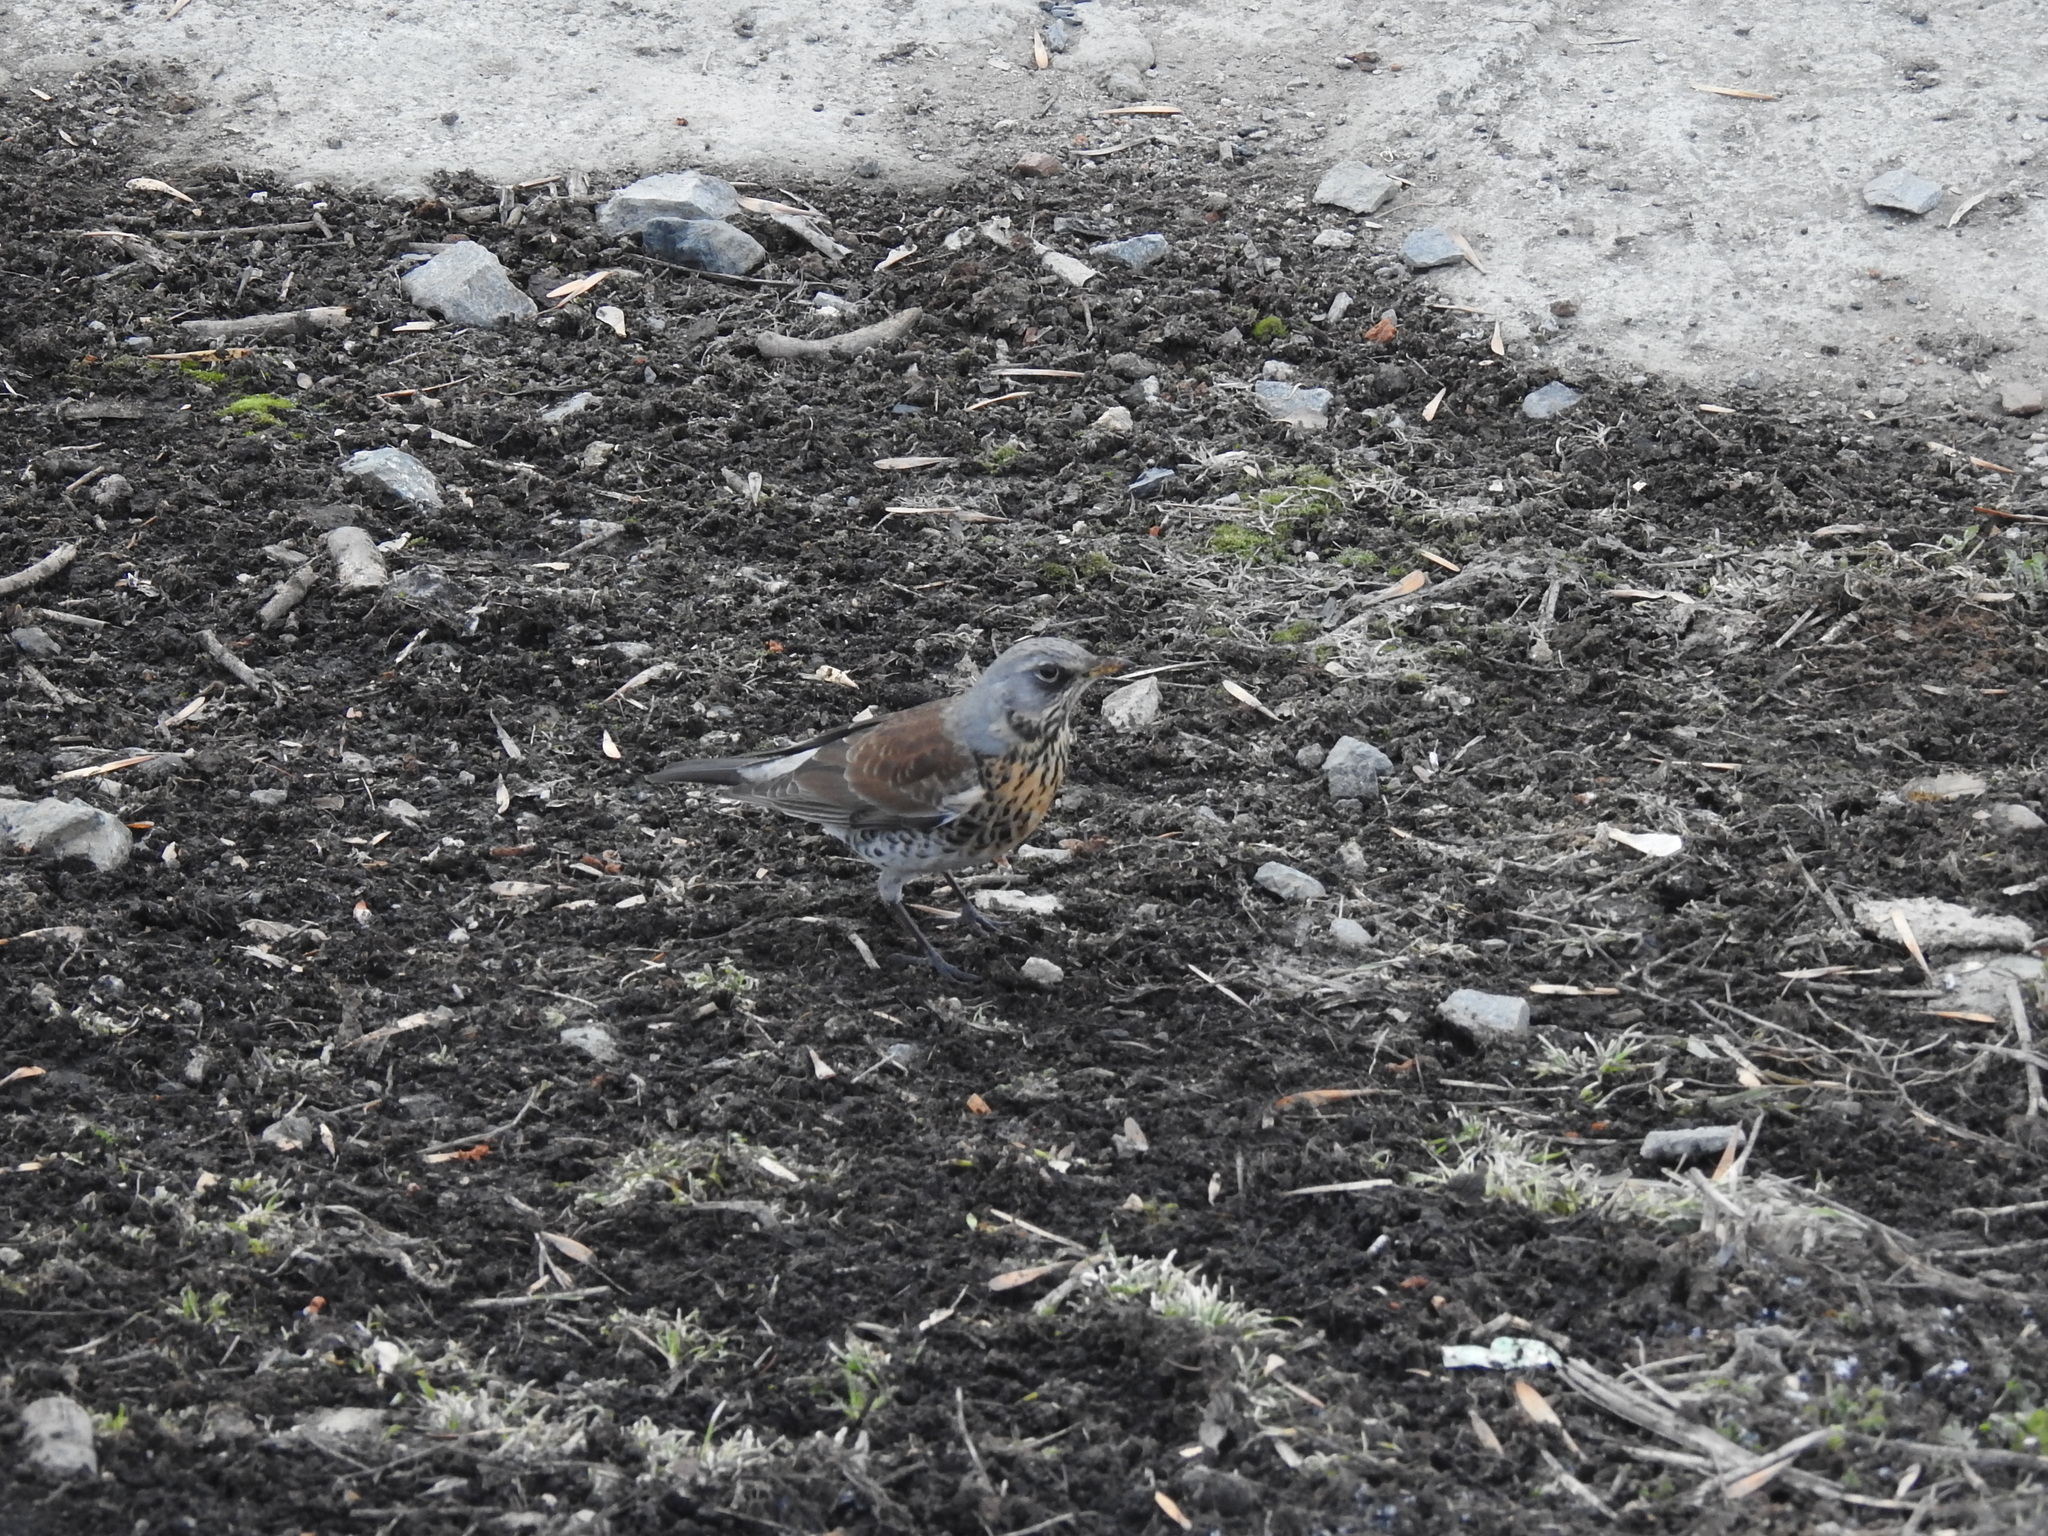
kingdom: Animalia
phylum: Chordata
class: Aves
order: Passeriformes
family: Turdidae
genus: Turdus
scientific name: Turdus pilaris
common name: Fieldfare
